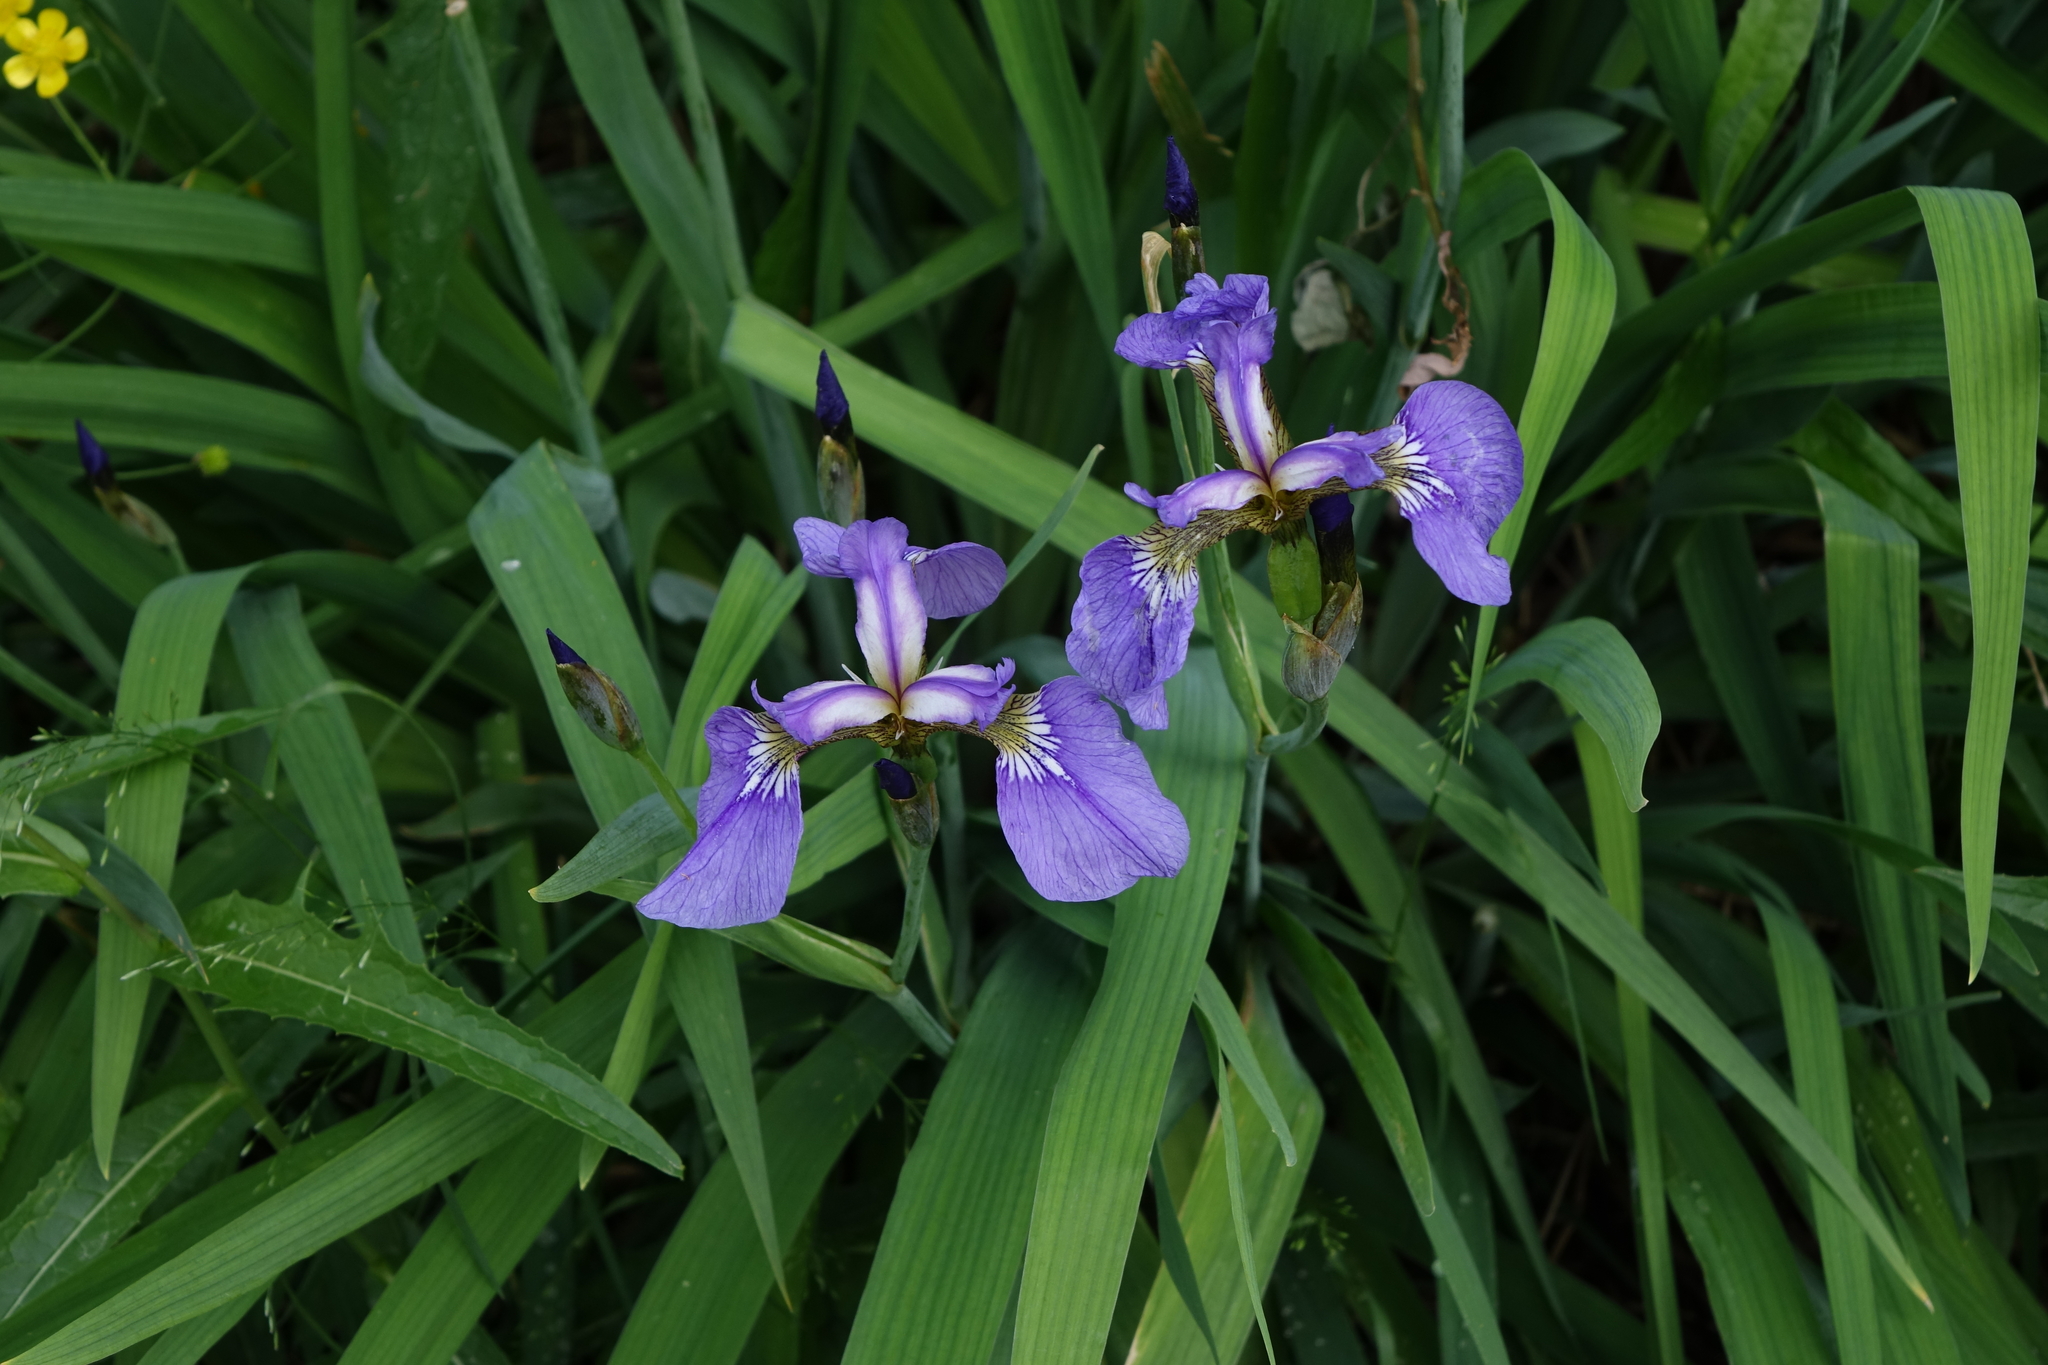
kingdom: Plantae
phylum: Tracheophyta
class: Liliopsida
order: Asparagales
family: Iridaceae
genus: Iris
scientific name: Iris setosa
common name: Arctic blue flag
